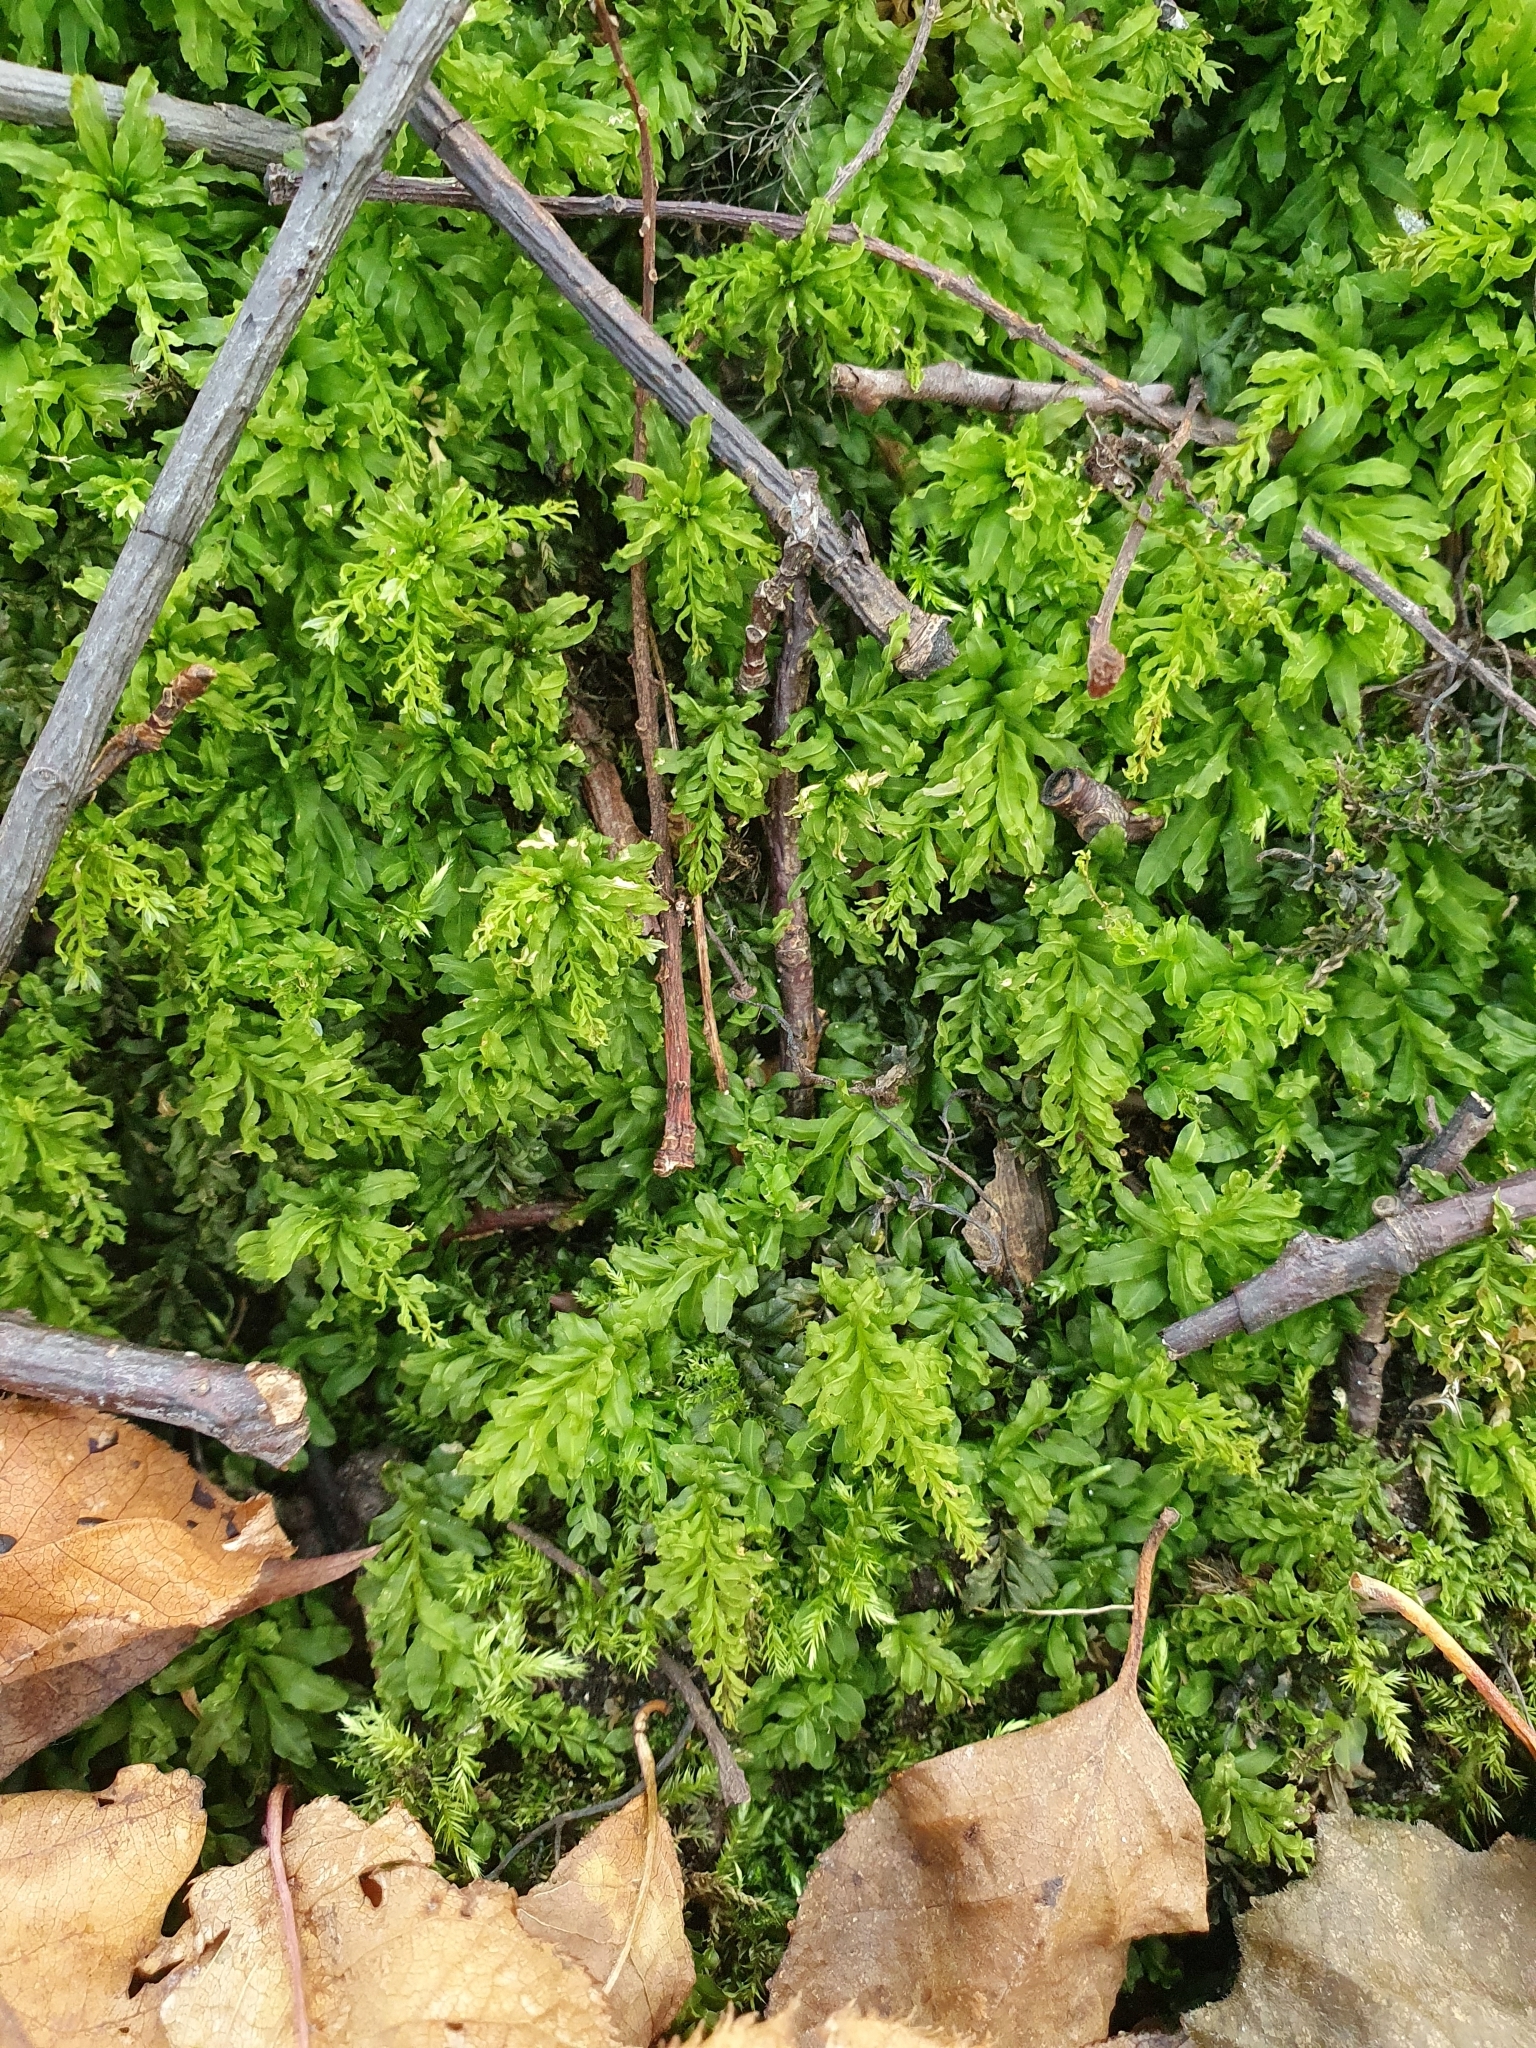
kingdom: Plantae
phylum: Bryophyta
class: Bryopsida
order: Bryales
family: Mniaceae
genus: Plagiomnium
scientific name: Plagiomnium undulatum
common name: Hart's-tongue thyme-moss
